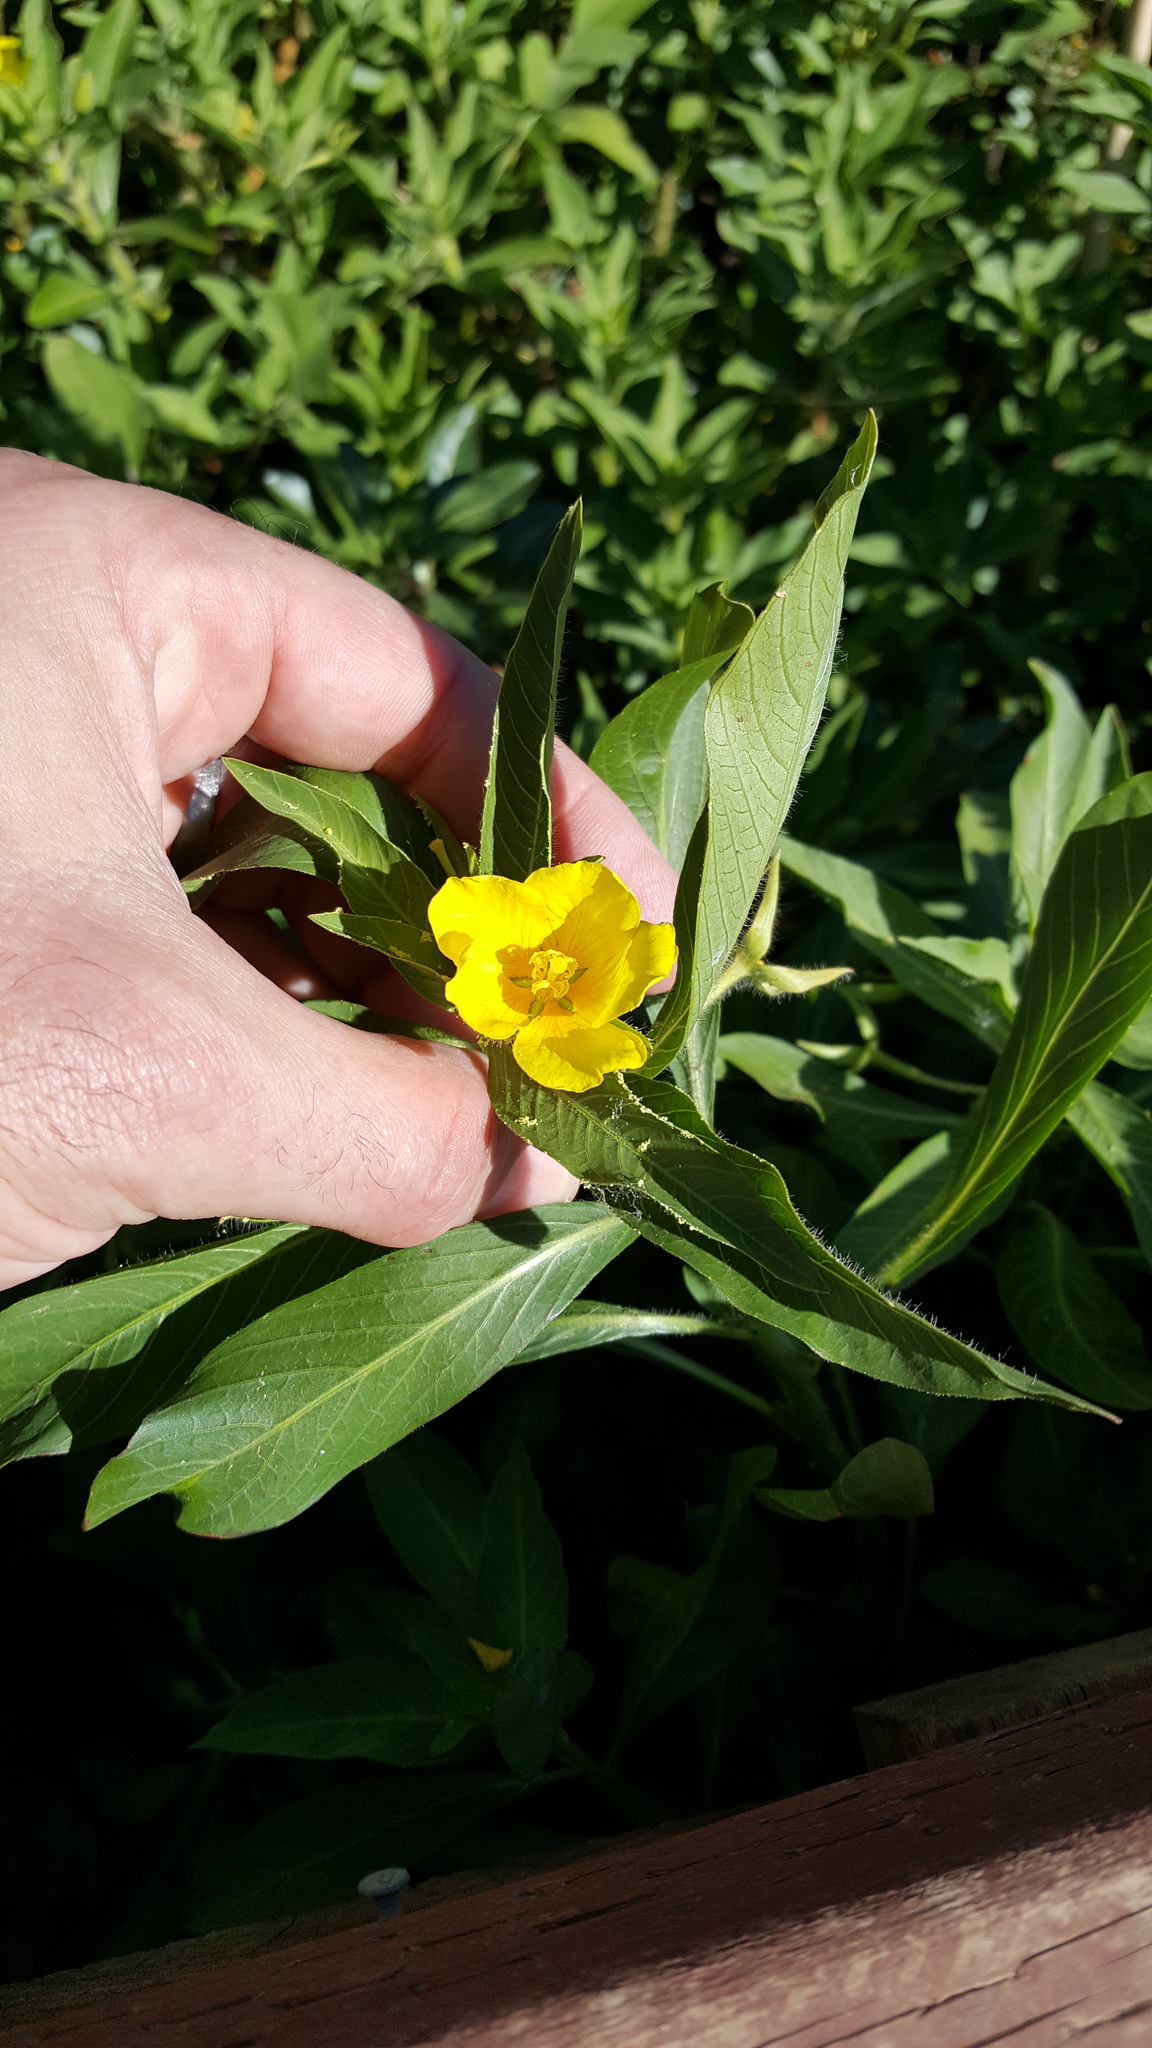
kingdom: Plantae
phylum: Tracheophyta
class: Magnoliopsida
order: Myrtales
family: Onagraceae
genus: Ludwigia
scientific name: Ludwigia hexapetala
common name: Water-primrose
